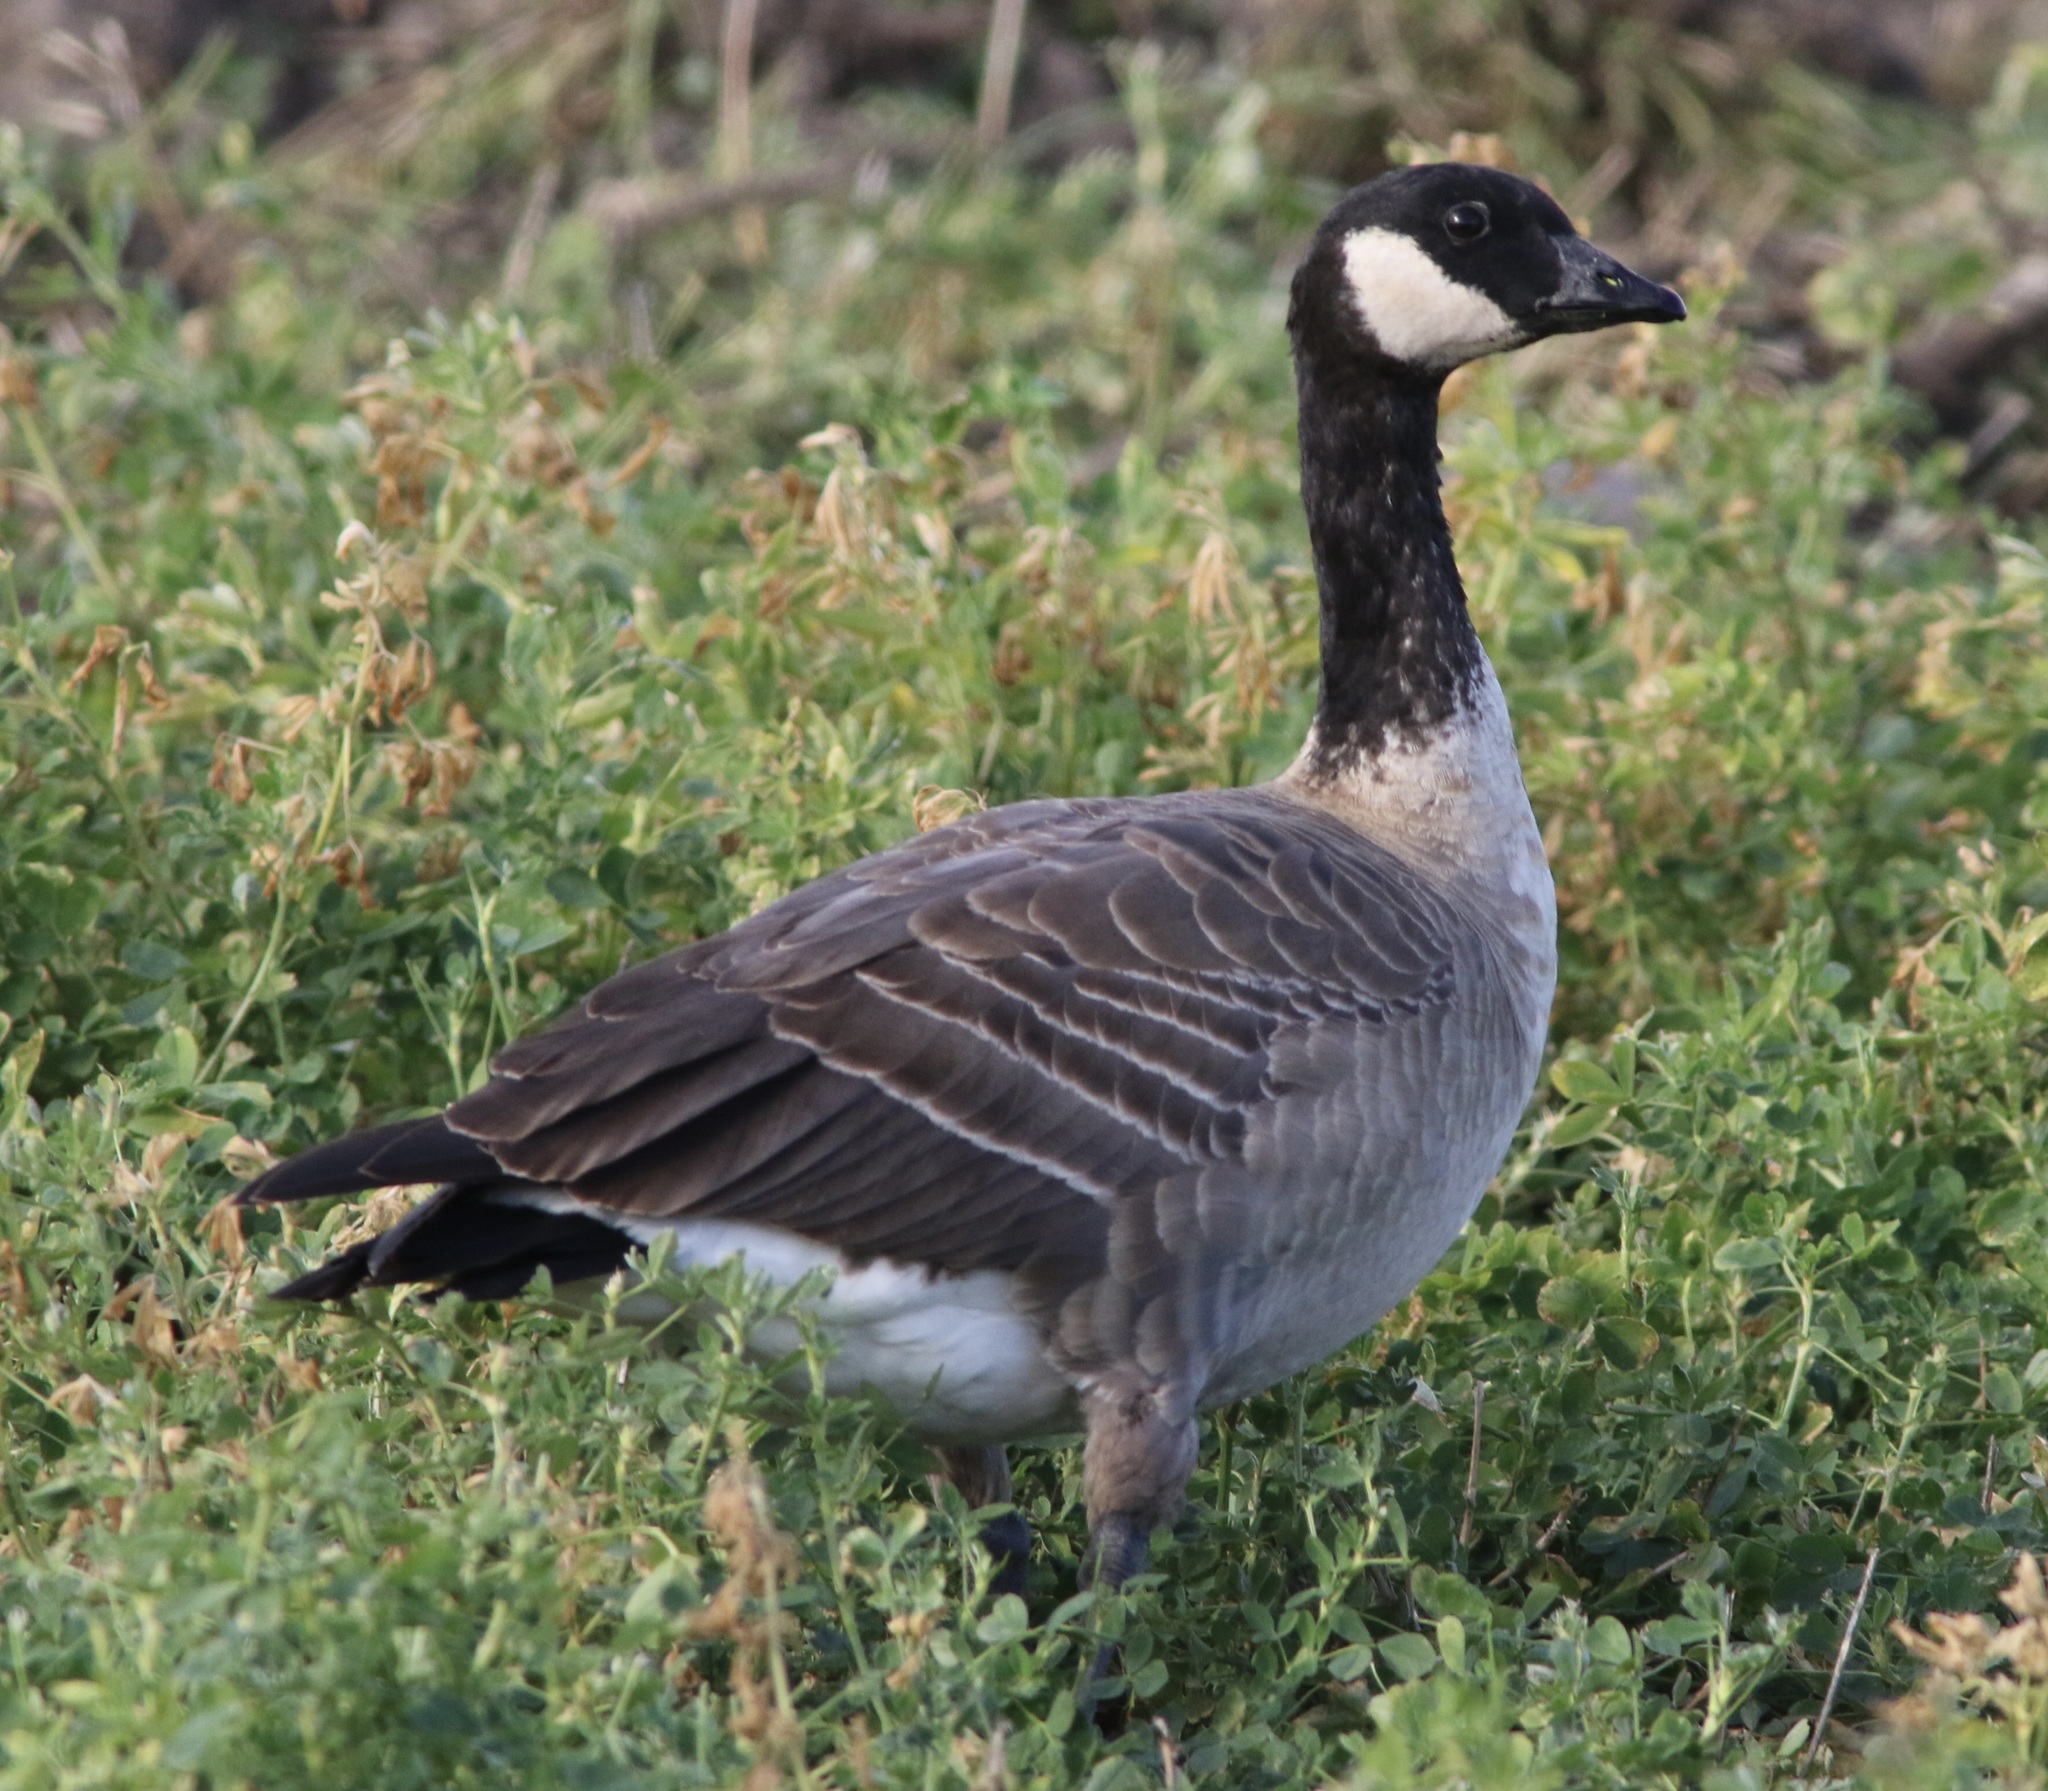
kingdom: Animalia
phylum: Chordata
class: Aves
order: Anseriformes
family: Anatidae
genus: Branta
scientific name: Branta hutchinsii
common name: Cackling goose
